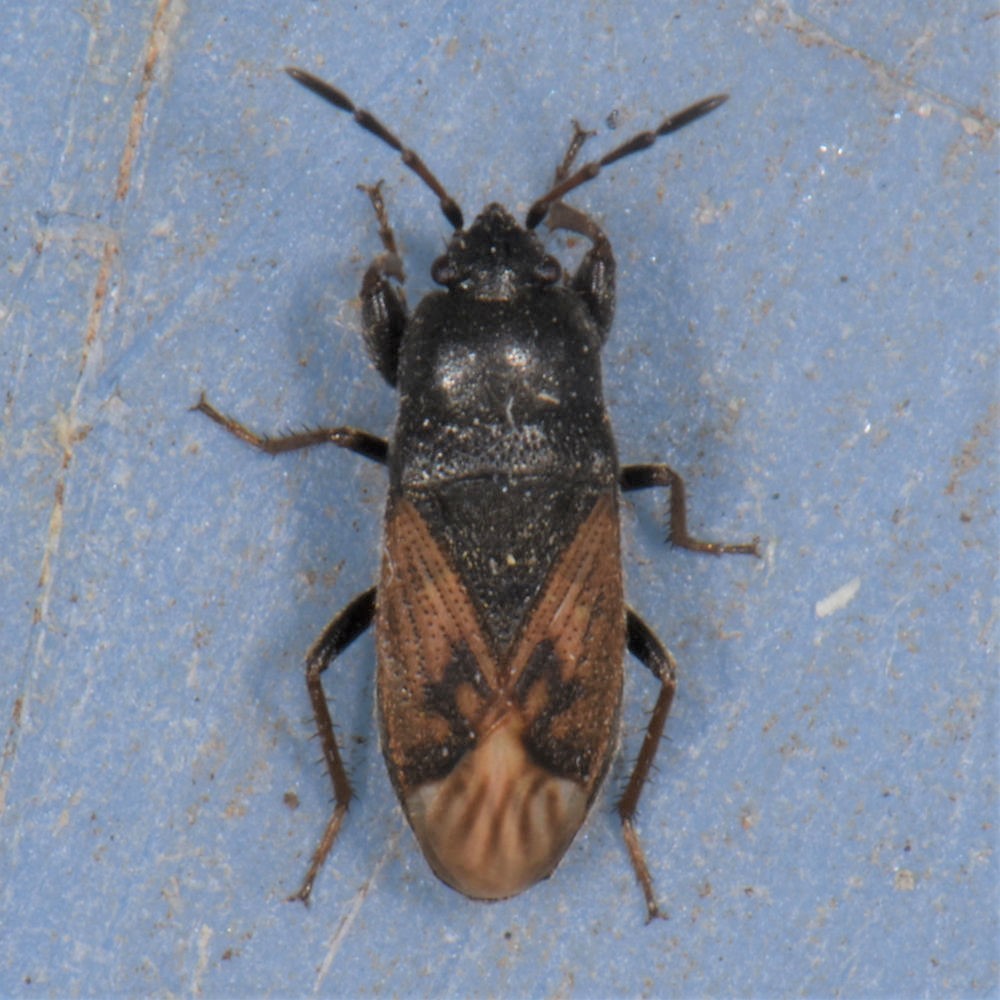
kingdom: Animalia
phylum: Arthropoda
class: Insecta
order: Hemiptera
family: Rhyparochromidae
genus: Megalonotus
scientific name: Megalonotus sabulicola
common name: Seed bug
